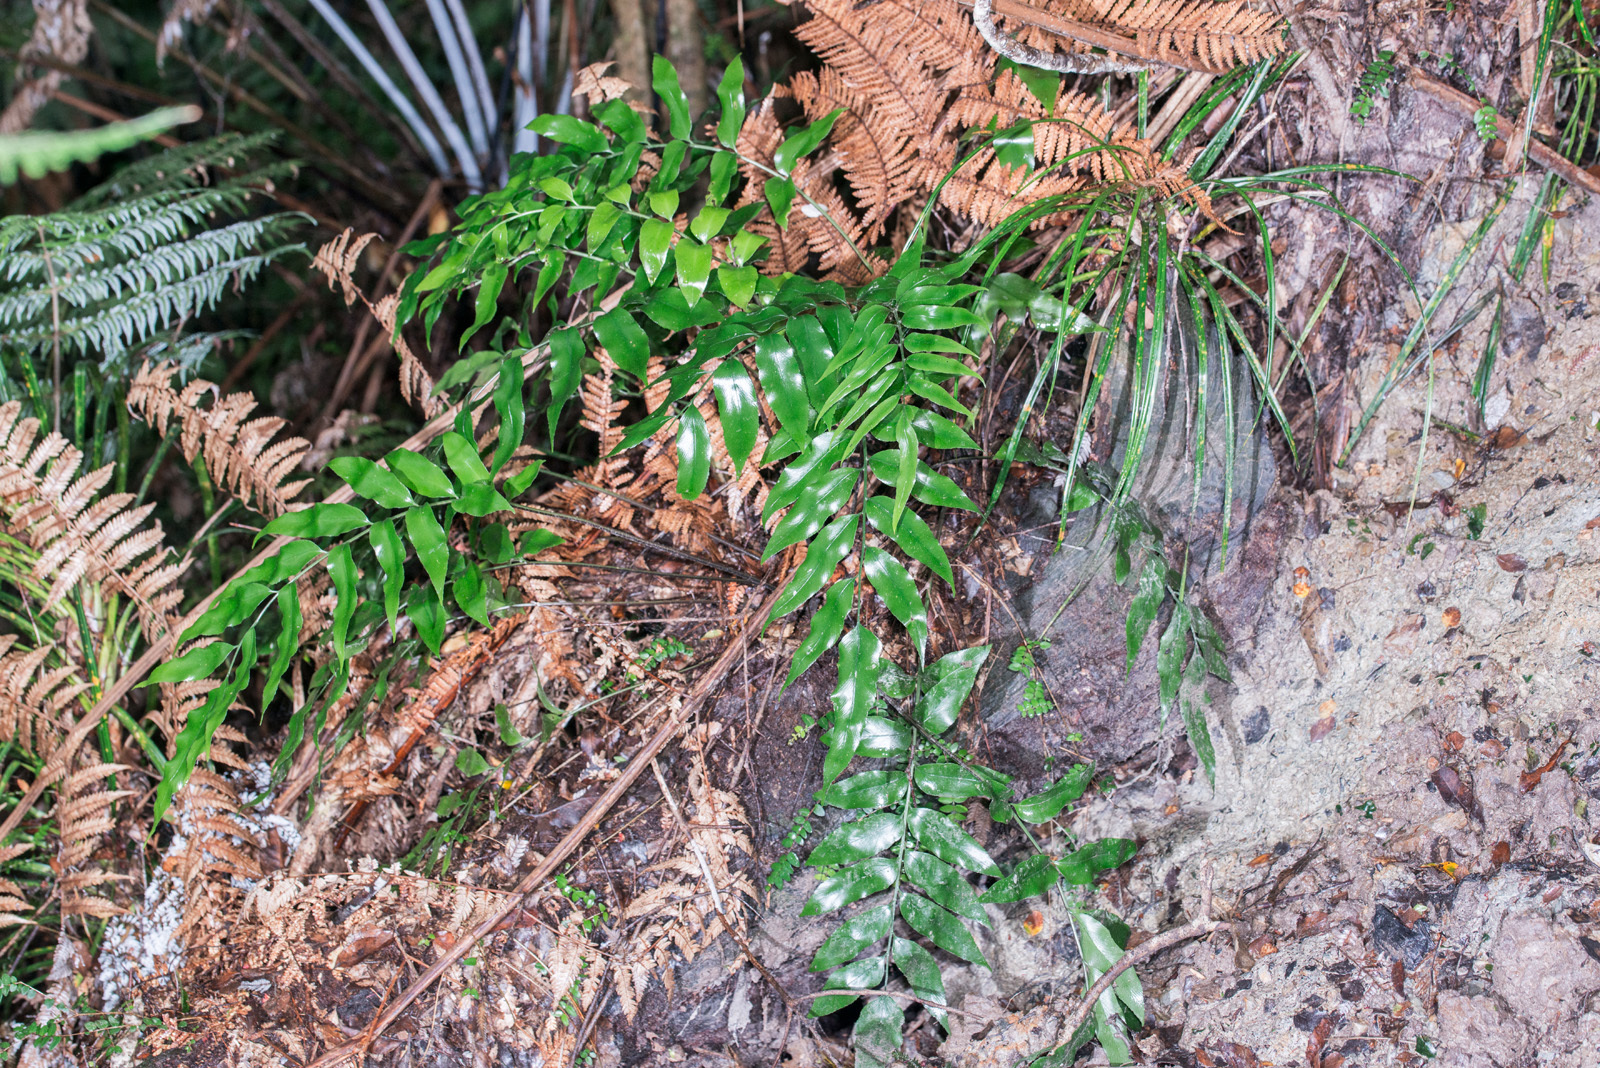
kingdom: Plantae
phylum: Tracheophyta
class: Polypodiopsida
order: Polypodiales
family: Aspleniaceae
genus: Asplenium
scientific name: Asplenium oblongifolium
